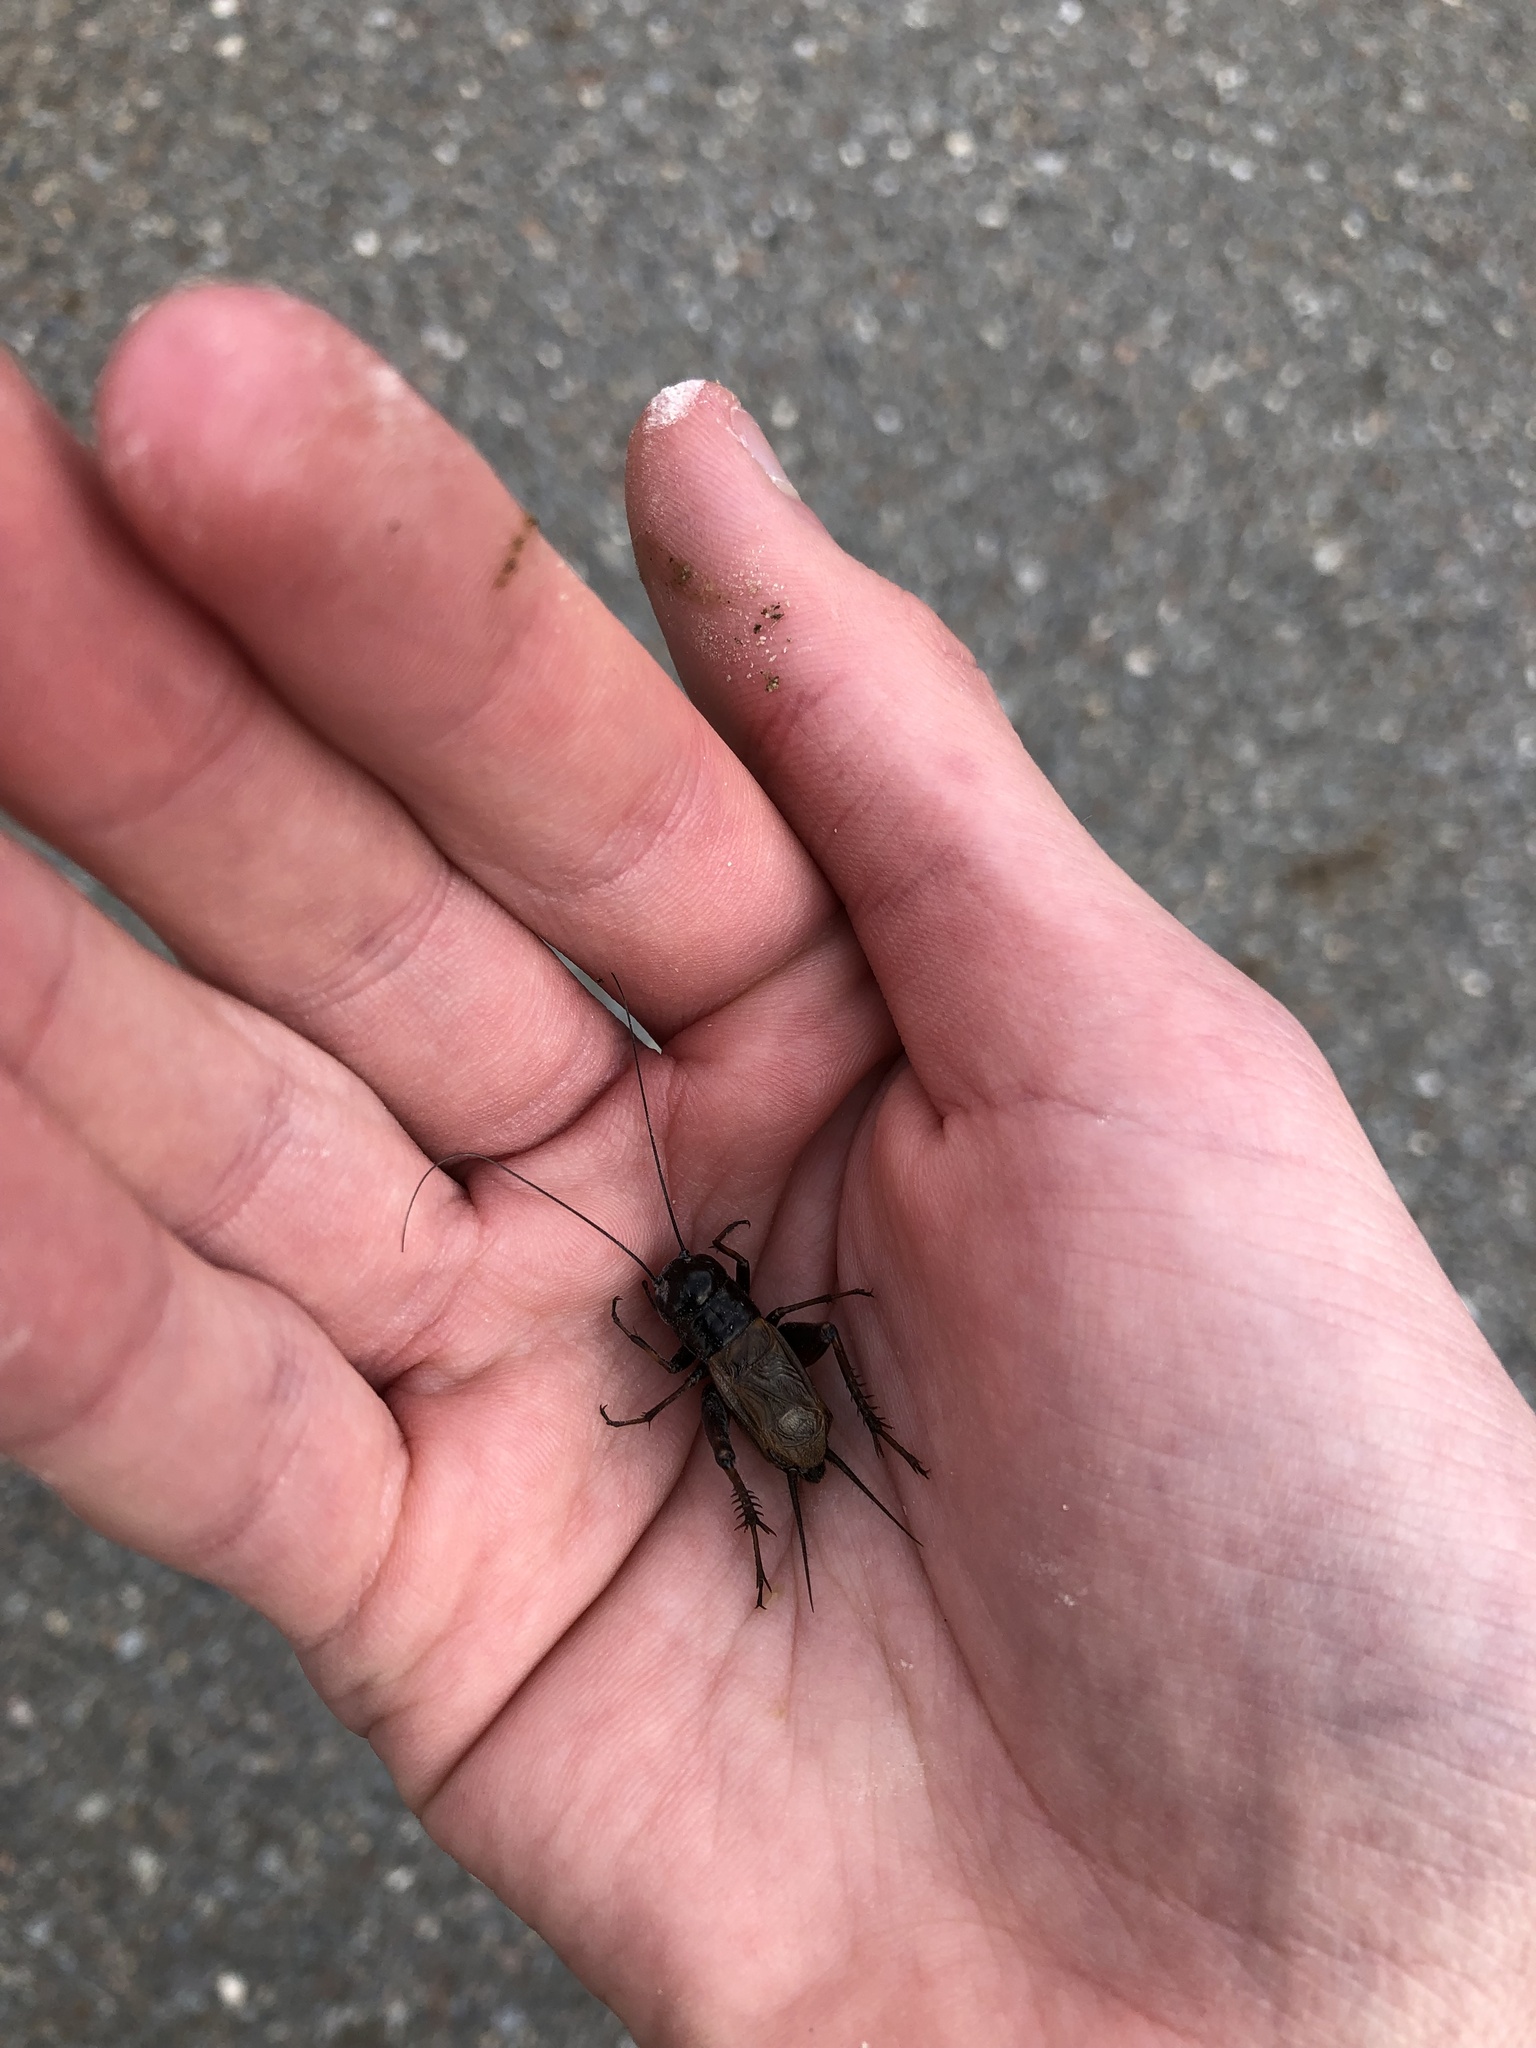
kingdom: Animalia
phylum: Arthropoda
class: Insecta
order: Orthoptera
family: Gryllidae
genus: Gryllus
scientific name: Gryllus pennsylvanicus
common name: Fall field cricket
